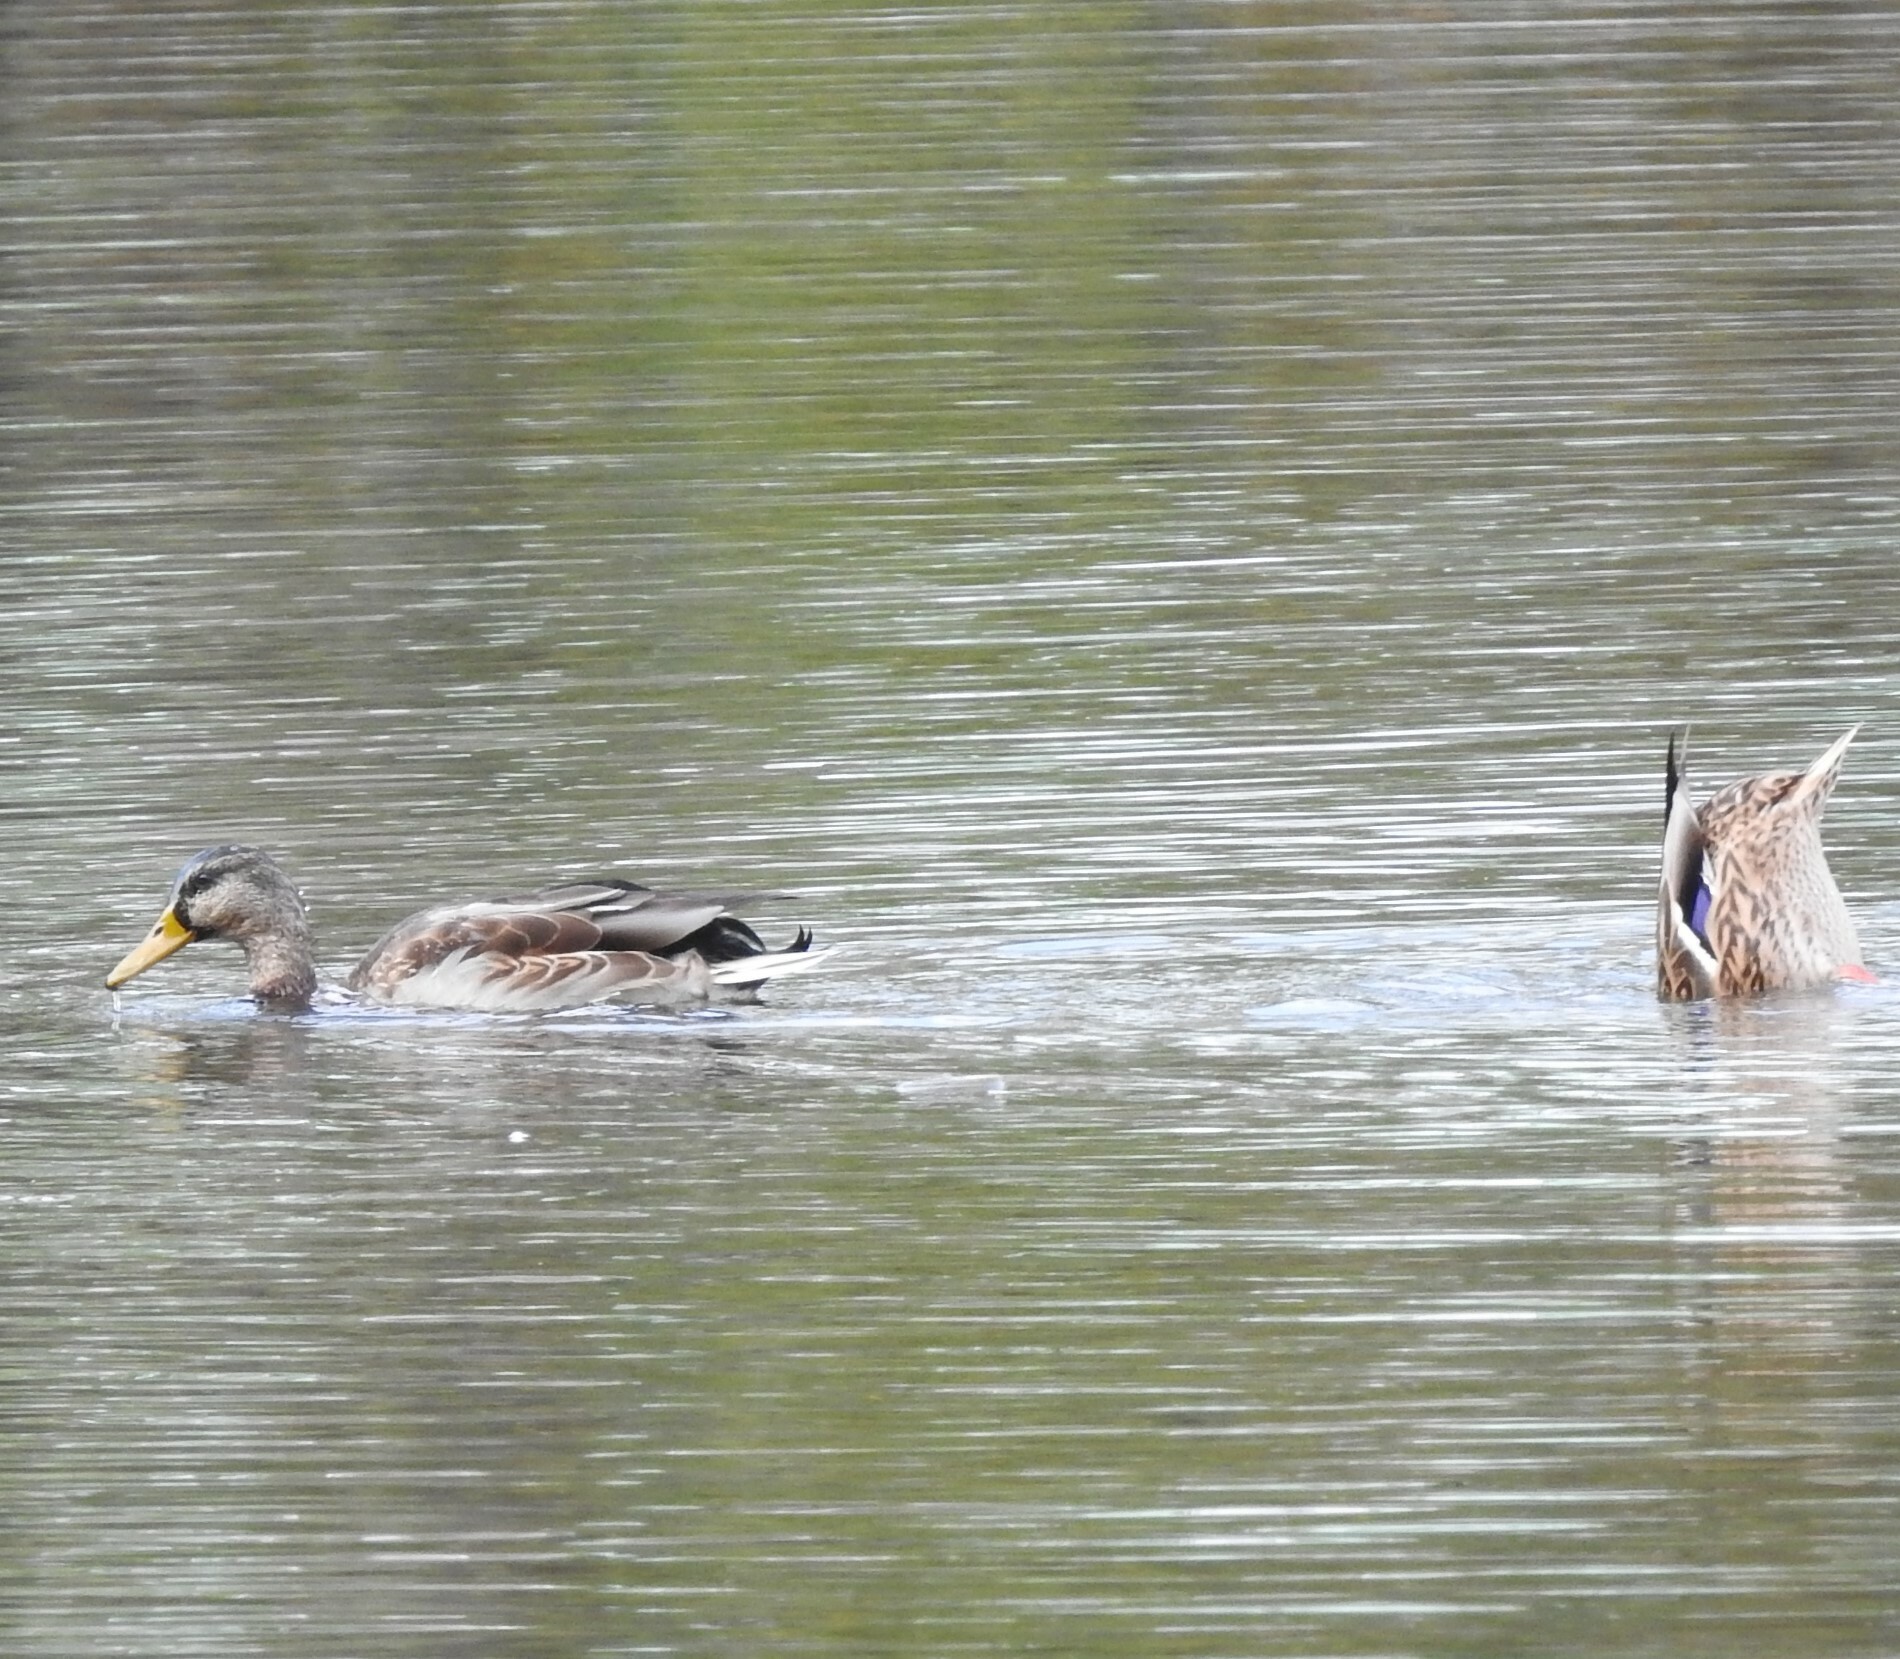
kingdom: Animalia
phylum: Chordata
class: Aves
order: Anseriformes
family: Anatidae
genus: Anas
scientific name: Anas platyrhynchos
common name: Mallard
